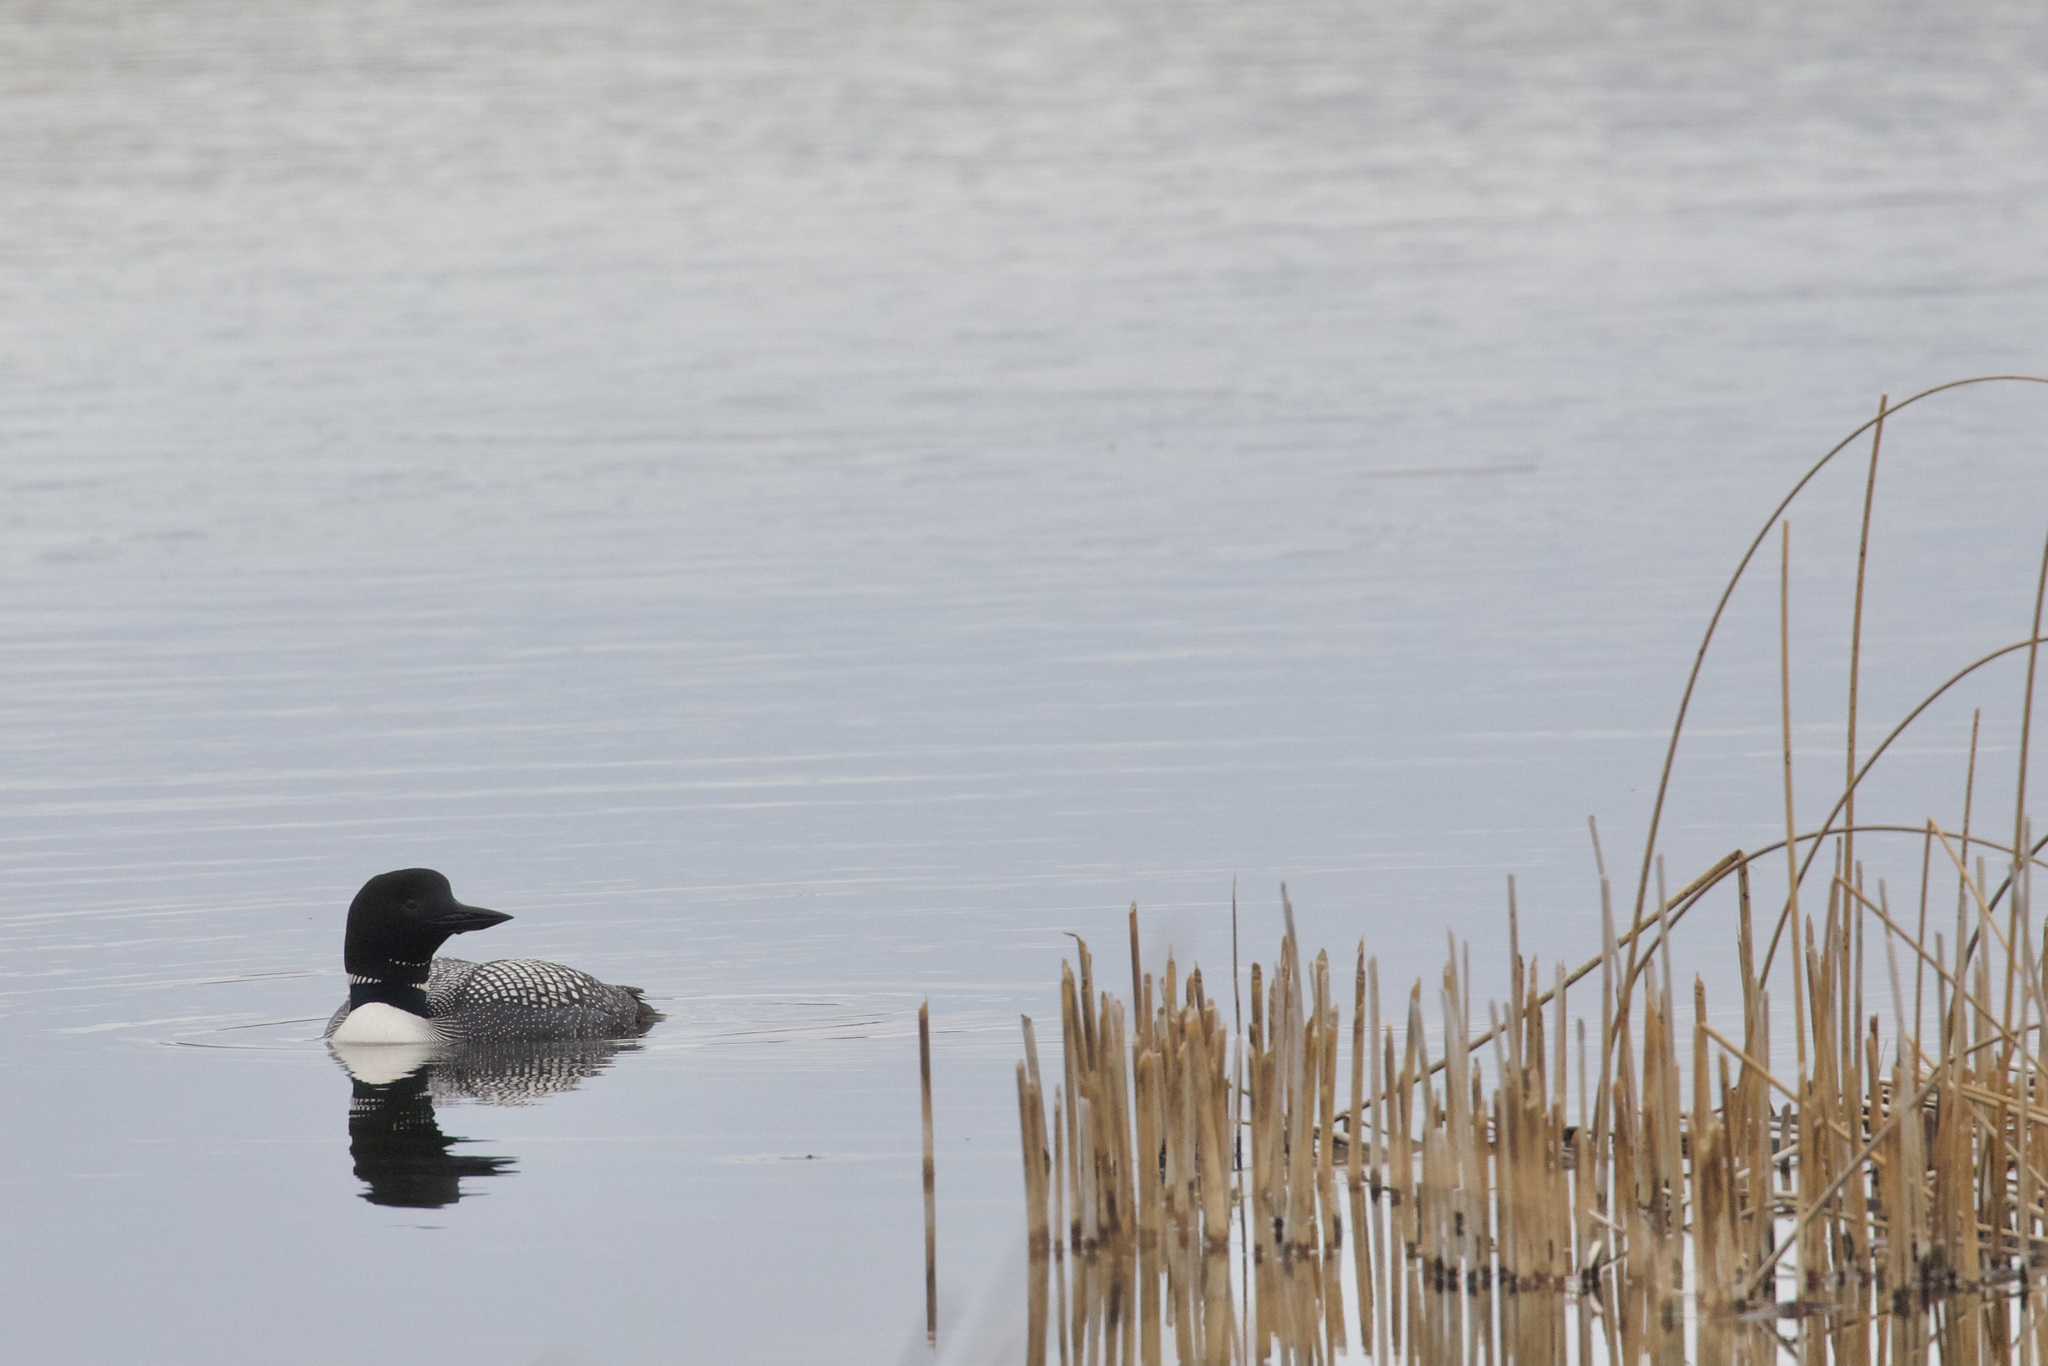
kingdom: Animalia
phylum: Chordata
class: Aves
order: Gaviiformes
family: Gaviidae
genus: Gavia
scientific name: Gavia immer
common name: Common loon
